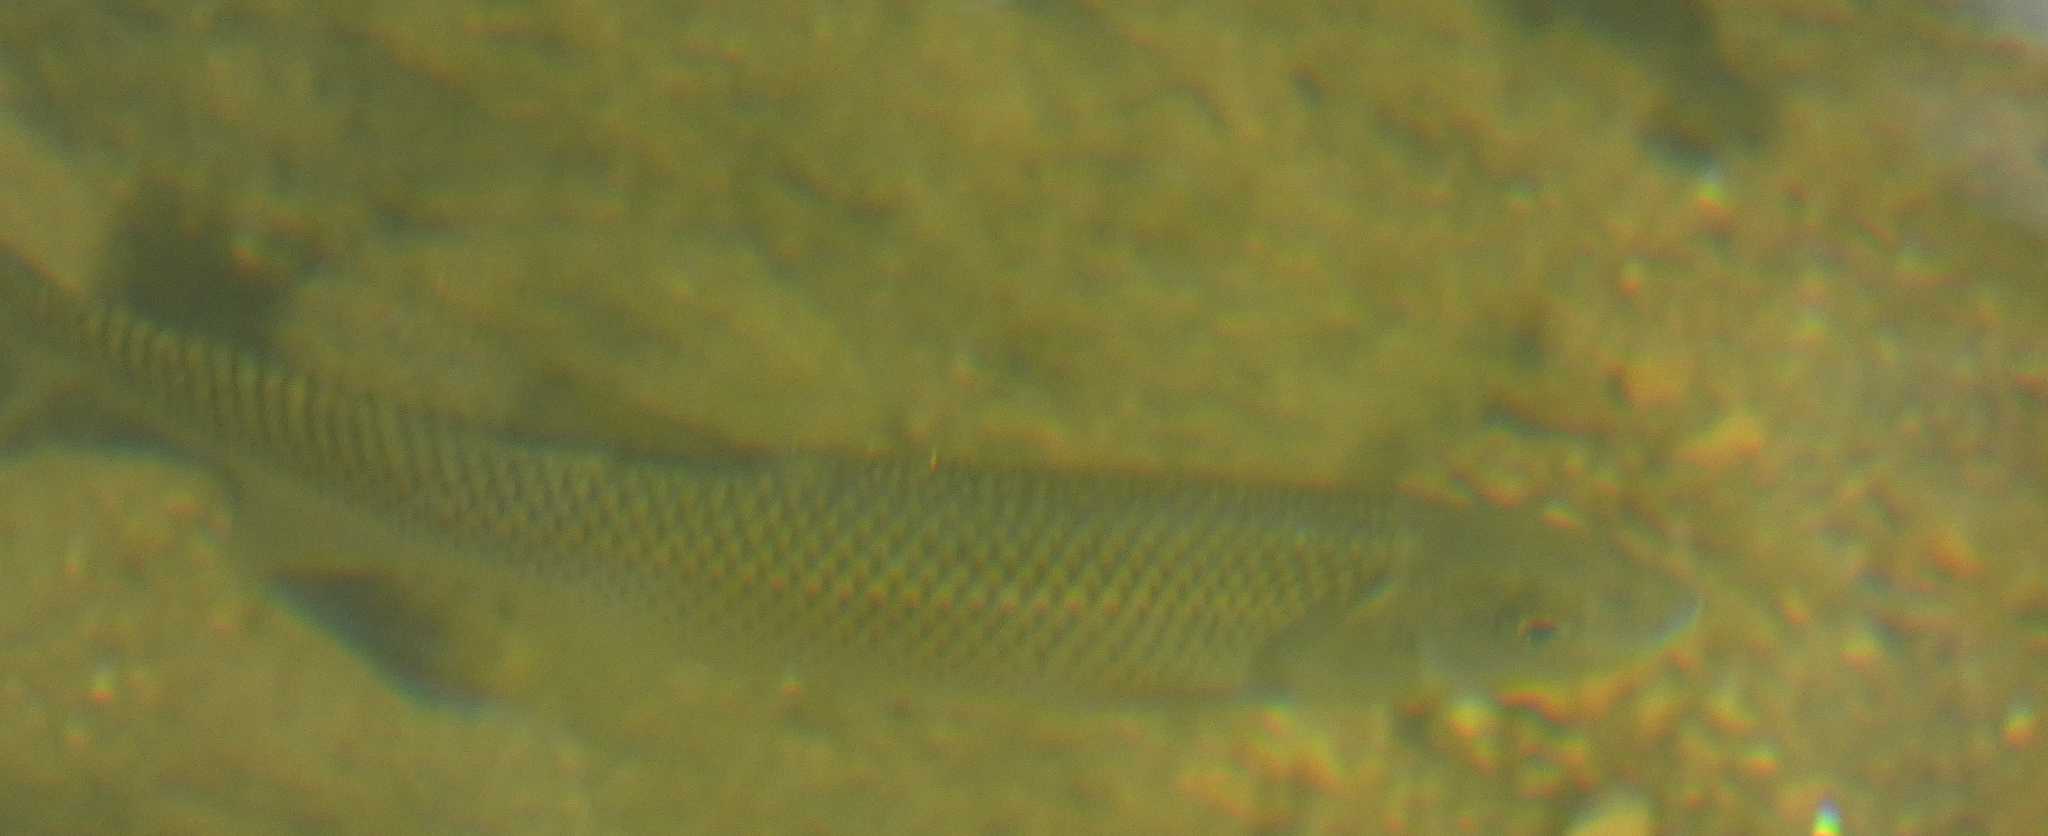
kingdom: Animalia
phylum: Chordata
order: Cypriniformes
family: Cyprinidae
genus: Semotilus
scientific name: Semotilus corporalis
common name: Fallfish
